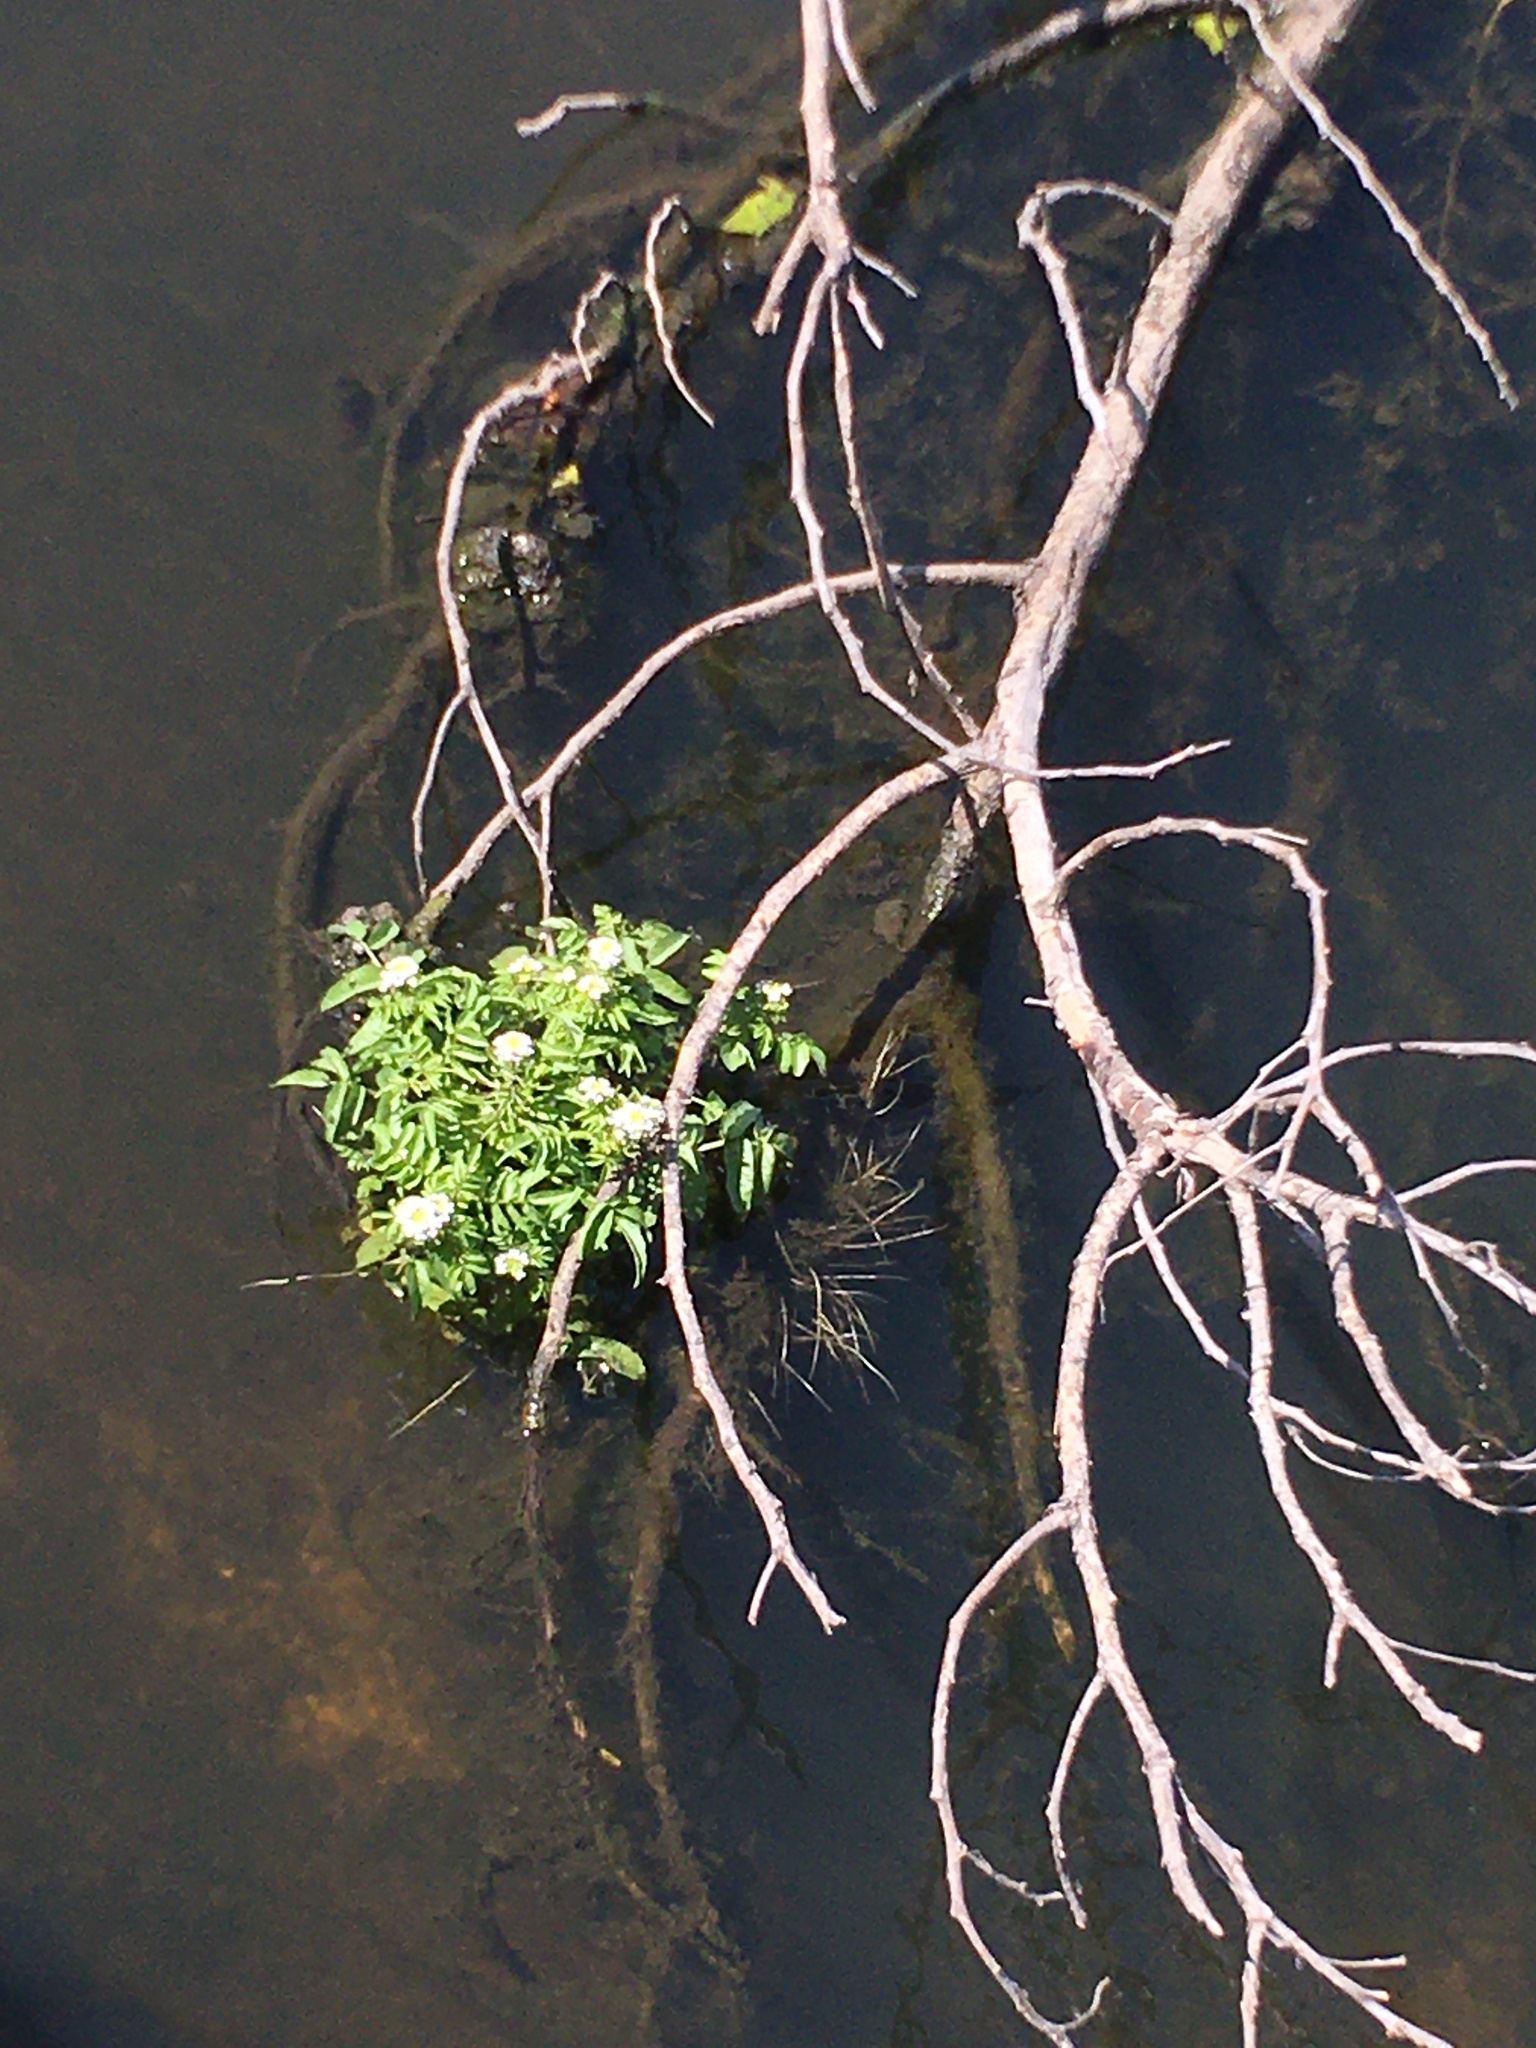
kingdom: Plantae
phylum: Tracheophyta
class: Magnoliopsida
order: Brassicales
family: Brassicaceae
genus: Nasturtium
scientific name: Nasturtium officinale
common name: Watercress
